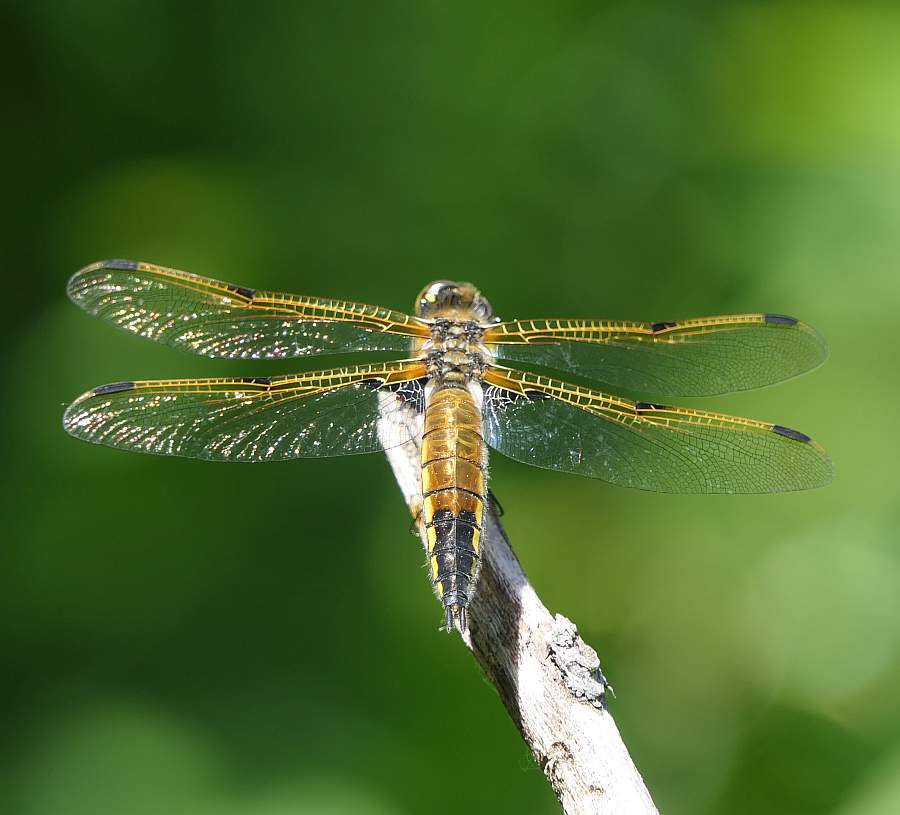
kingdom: Animalia
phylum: Arthropoda
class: Insecta
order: Odonata
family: Libellulidae
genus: Libellula
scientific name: Libellula quadrimaculata
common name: Four-spotted chaser
